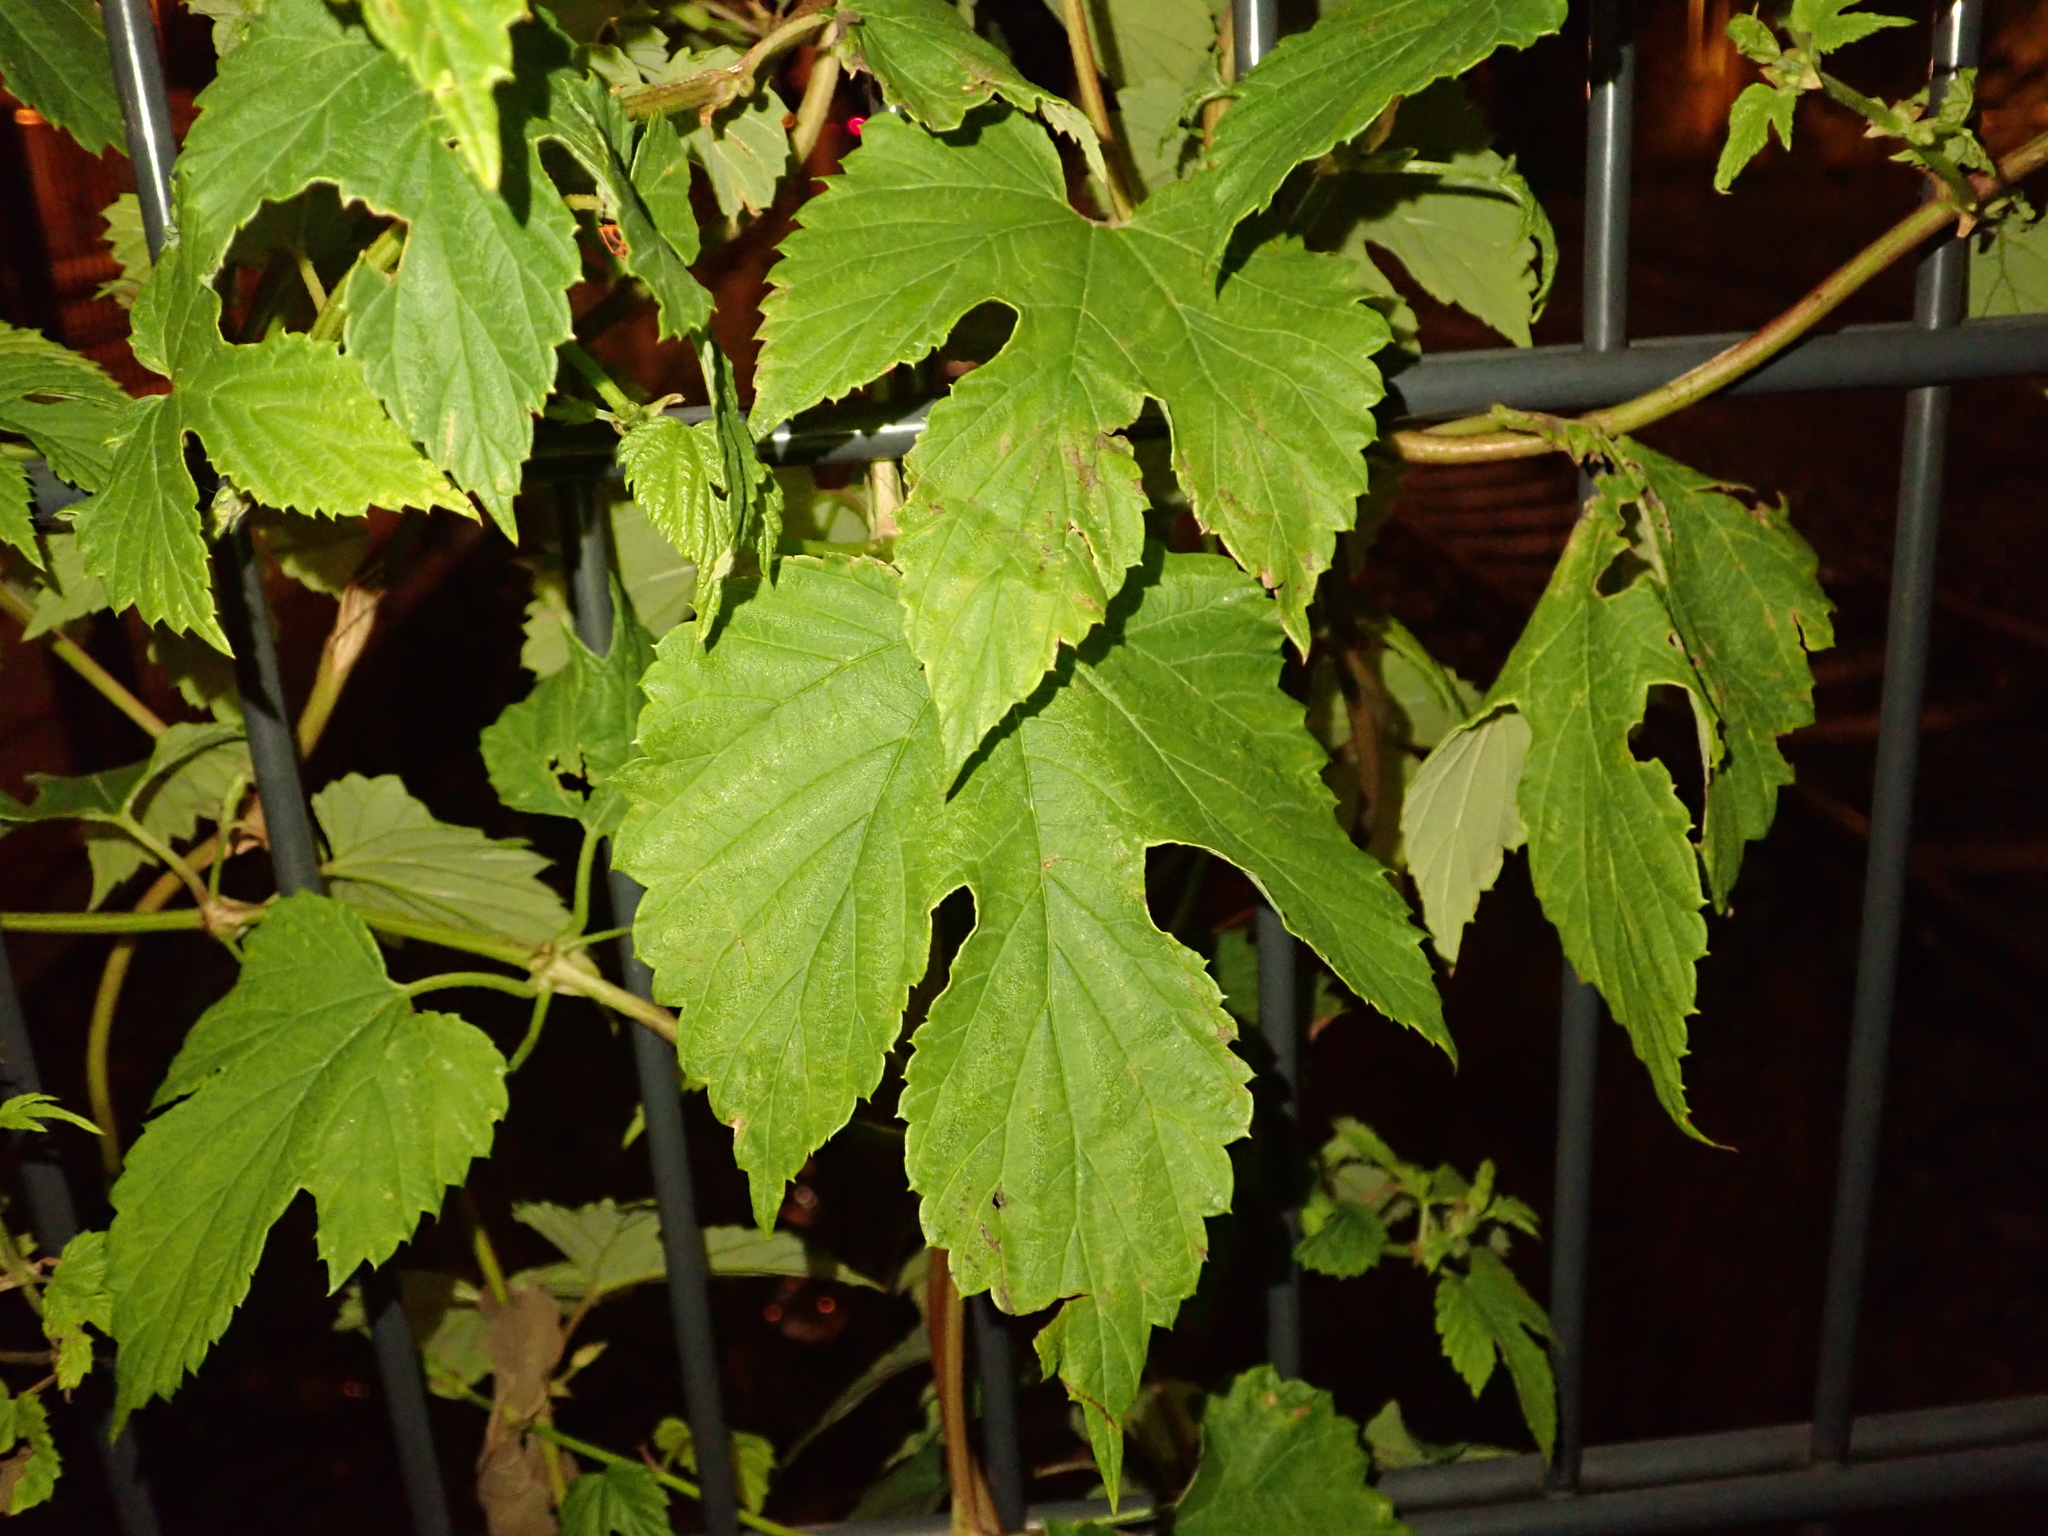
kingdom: Plantae
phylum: Tracheophyta
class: Magnoliopsida
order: Rosales
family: Cannabaceae
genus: Humulus
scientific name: Humulus lupulus
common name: Hop
